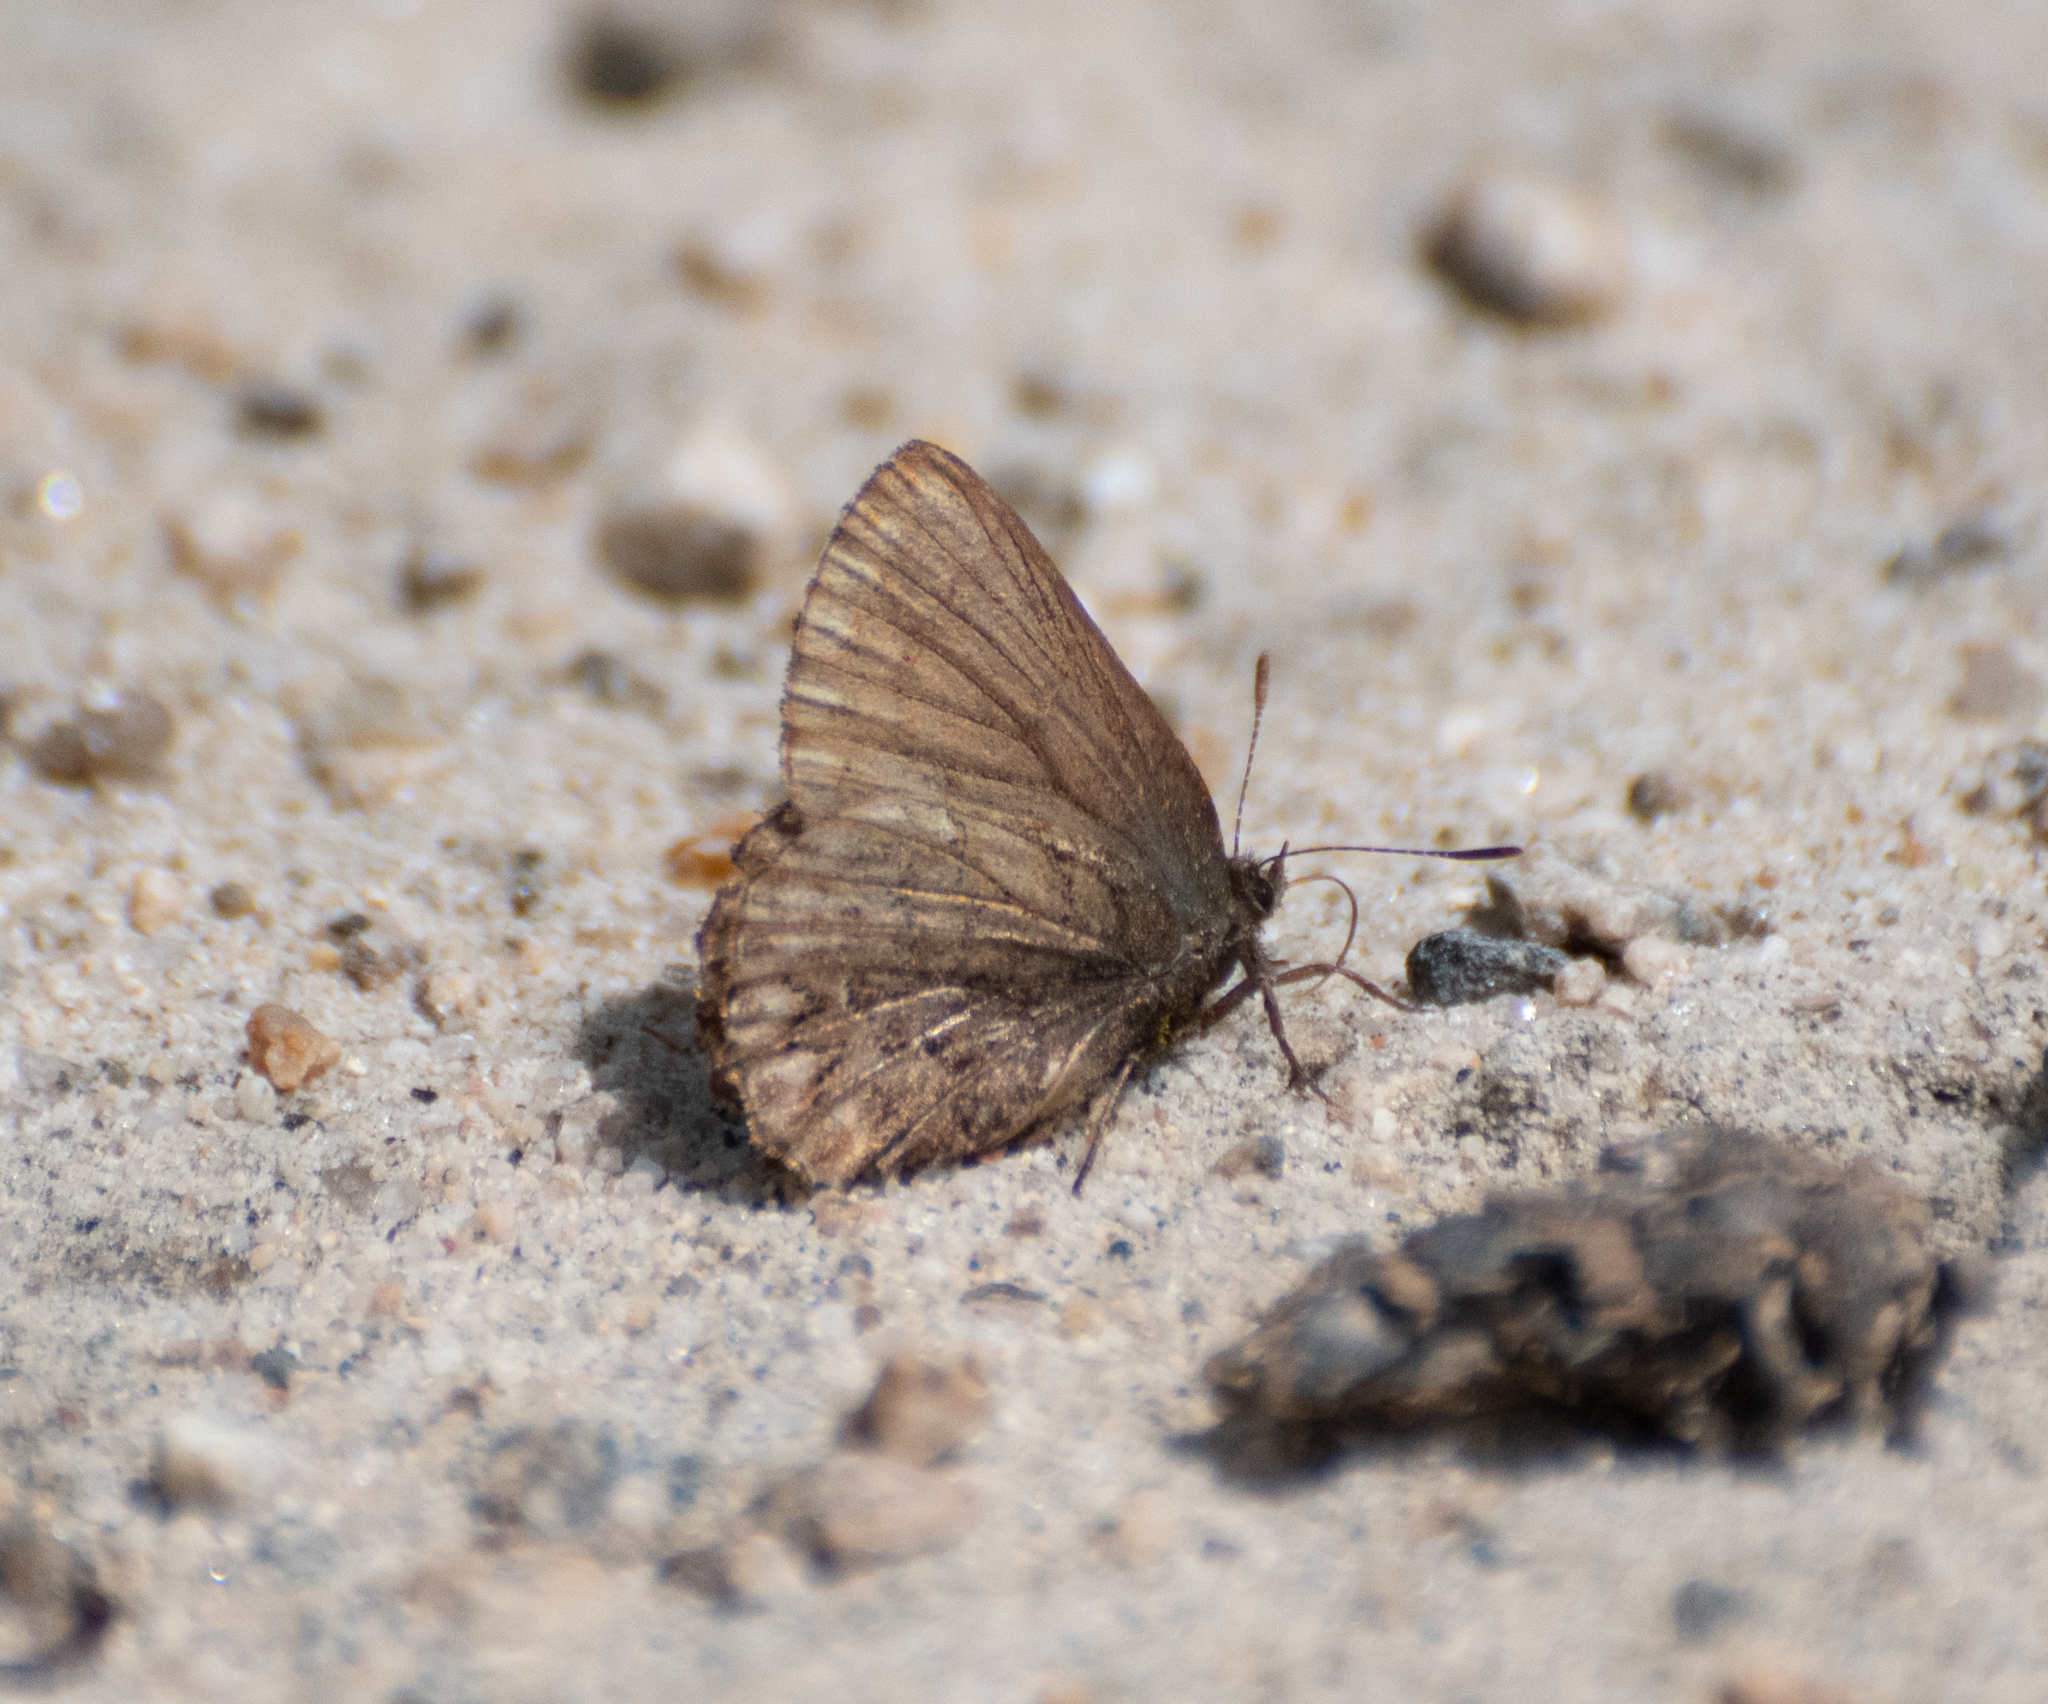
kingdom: Animalia
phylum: Arthropoda
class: Insecta
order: Lepidoptera
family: Lycaenidae
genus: Incisalia
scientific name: Incisalia eryphon
